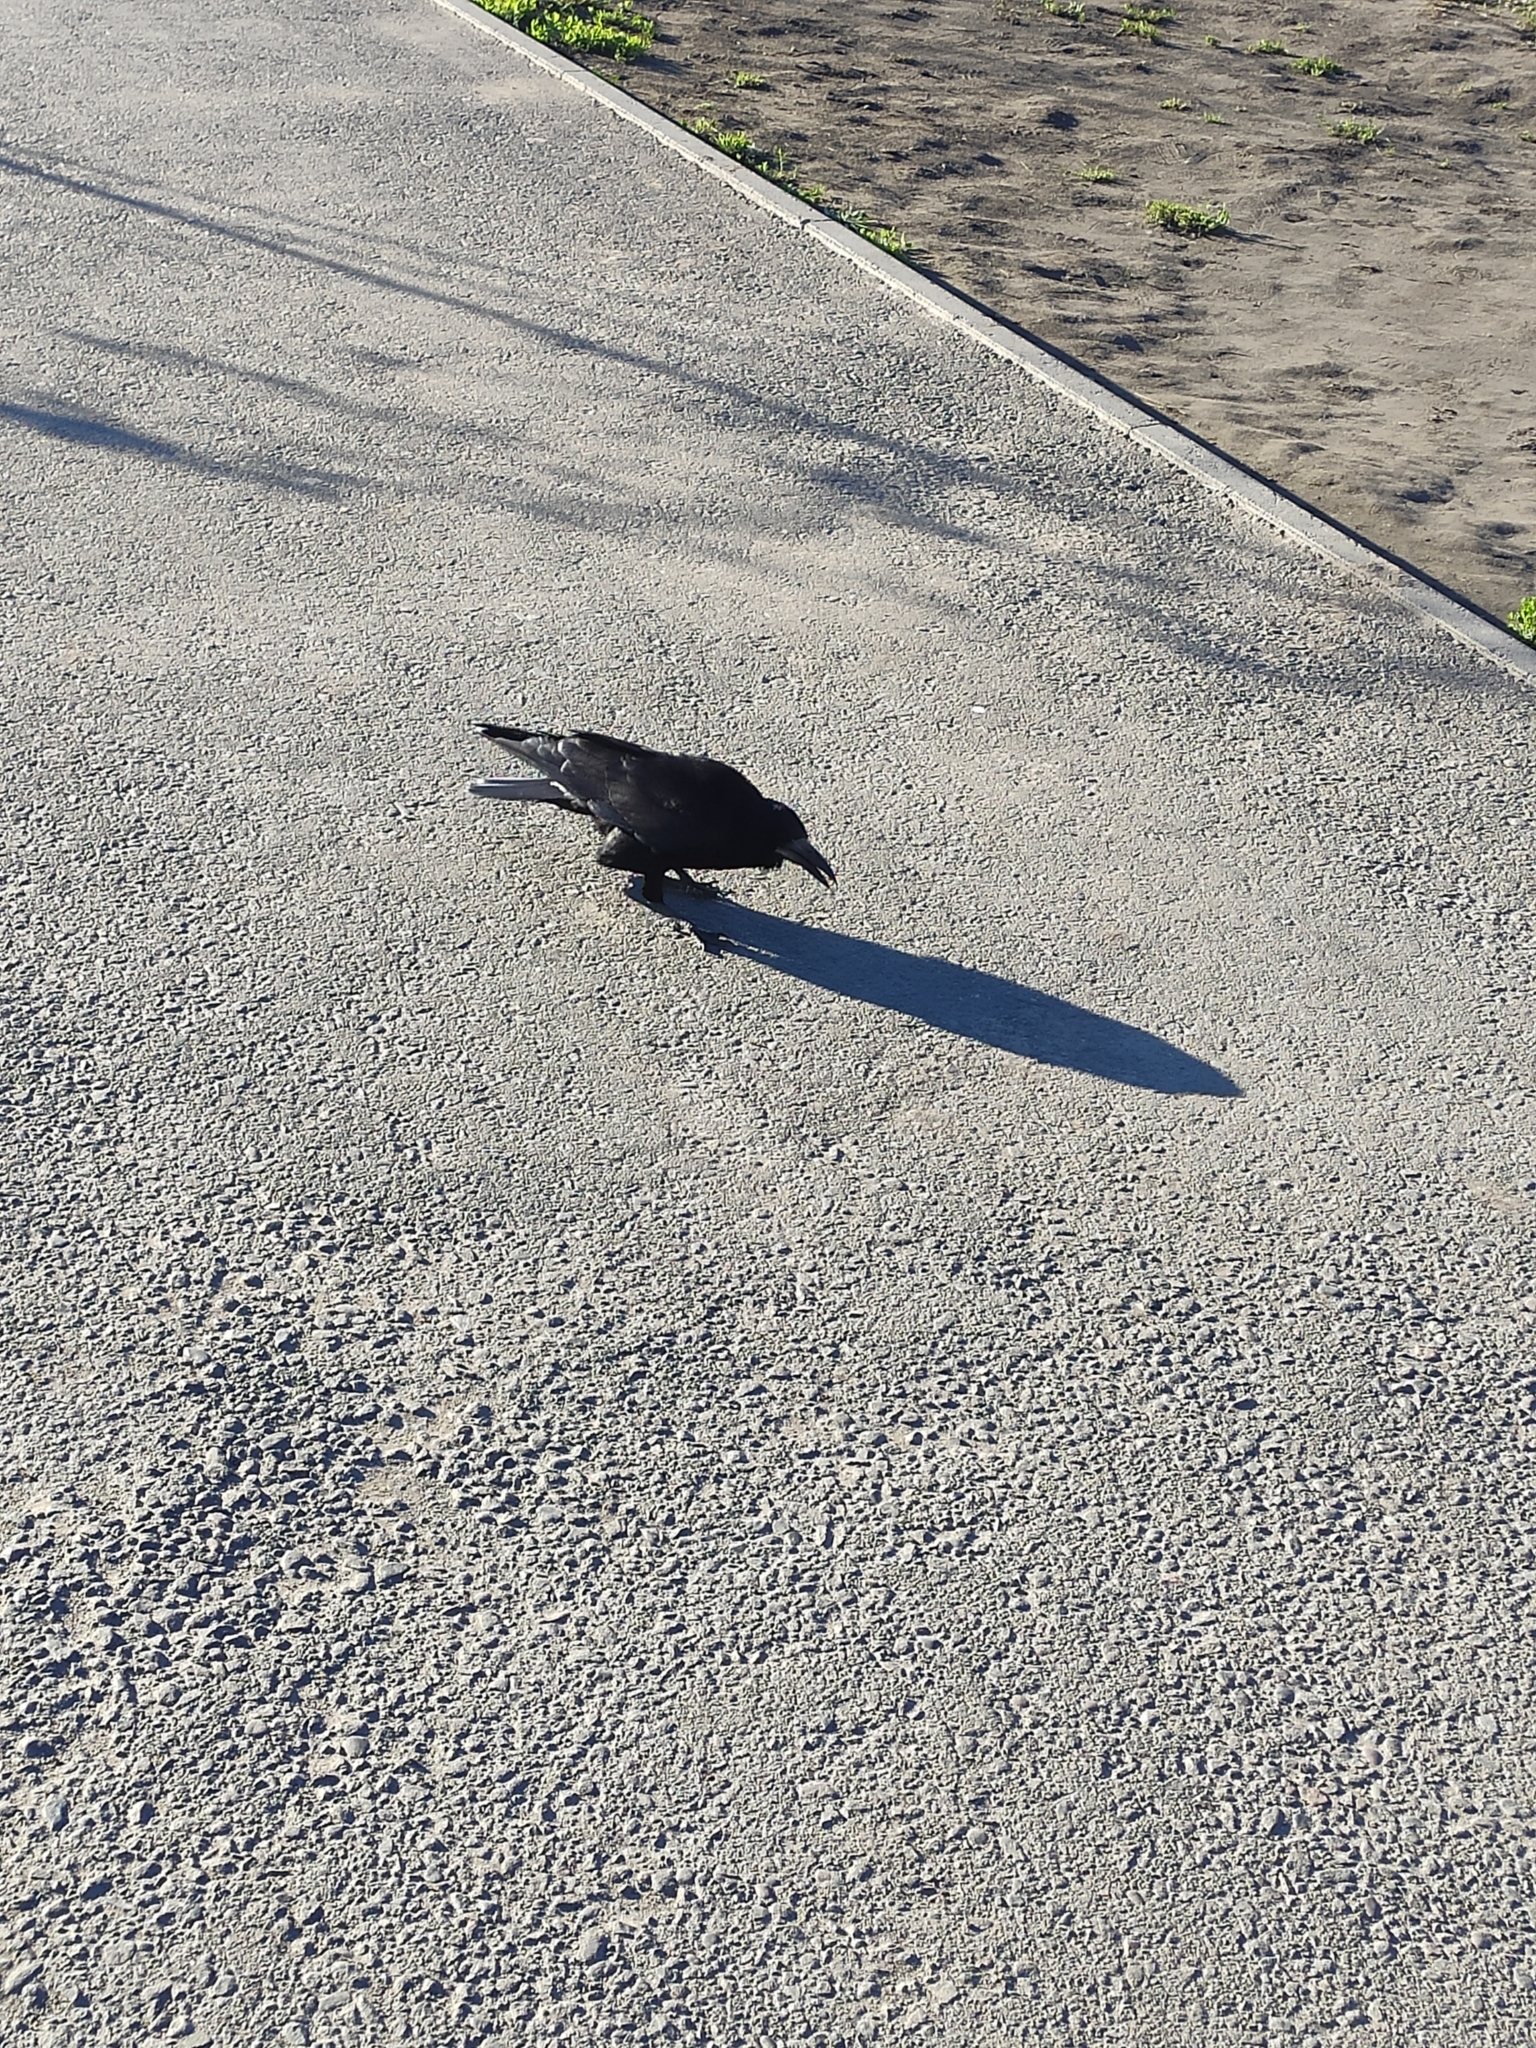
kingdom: Animalia
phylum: Chordata
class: Aves
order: Passeriformes
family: Corvidae
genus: Corvus
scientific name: Corvus frugilegus
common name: Rook
